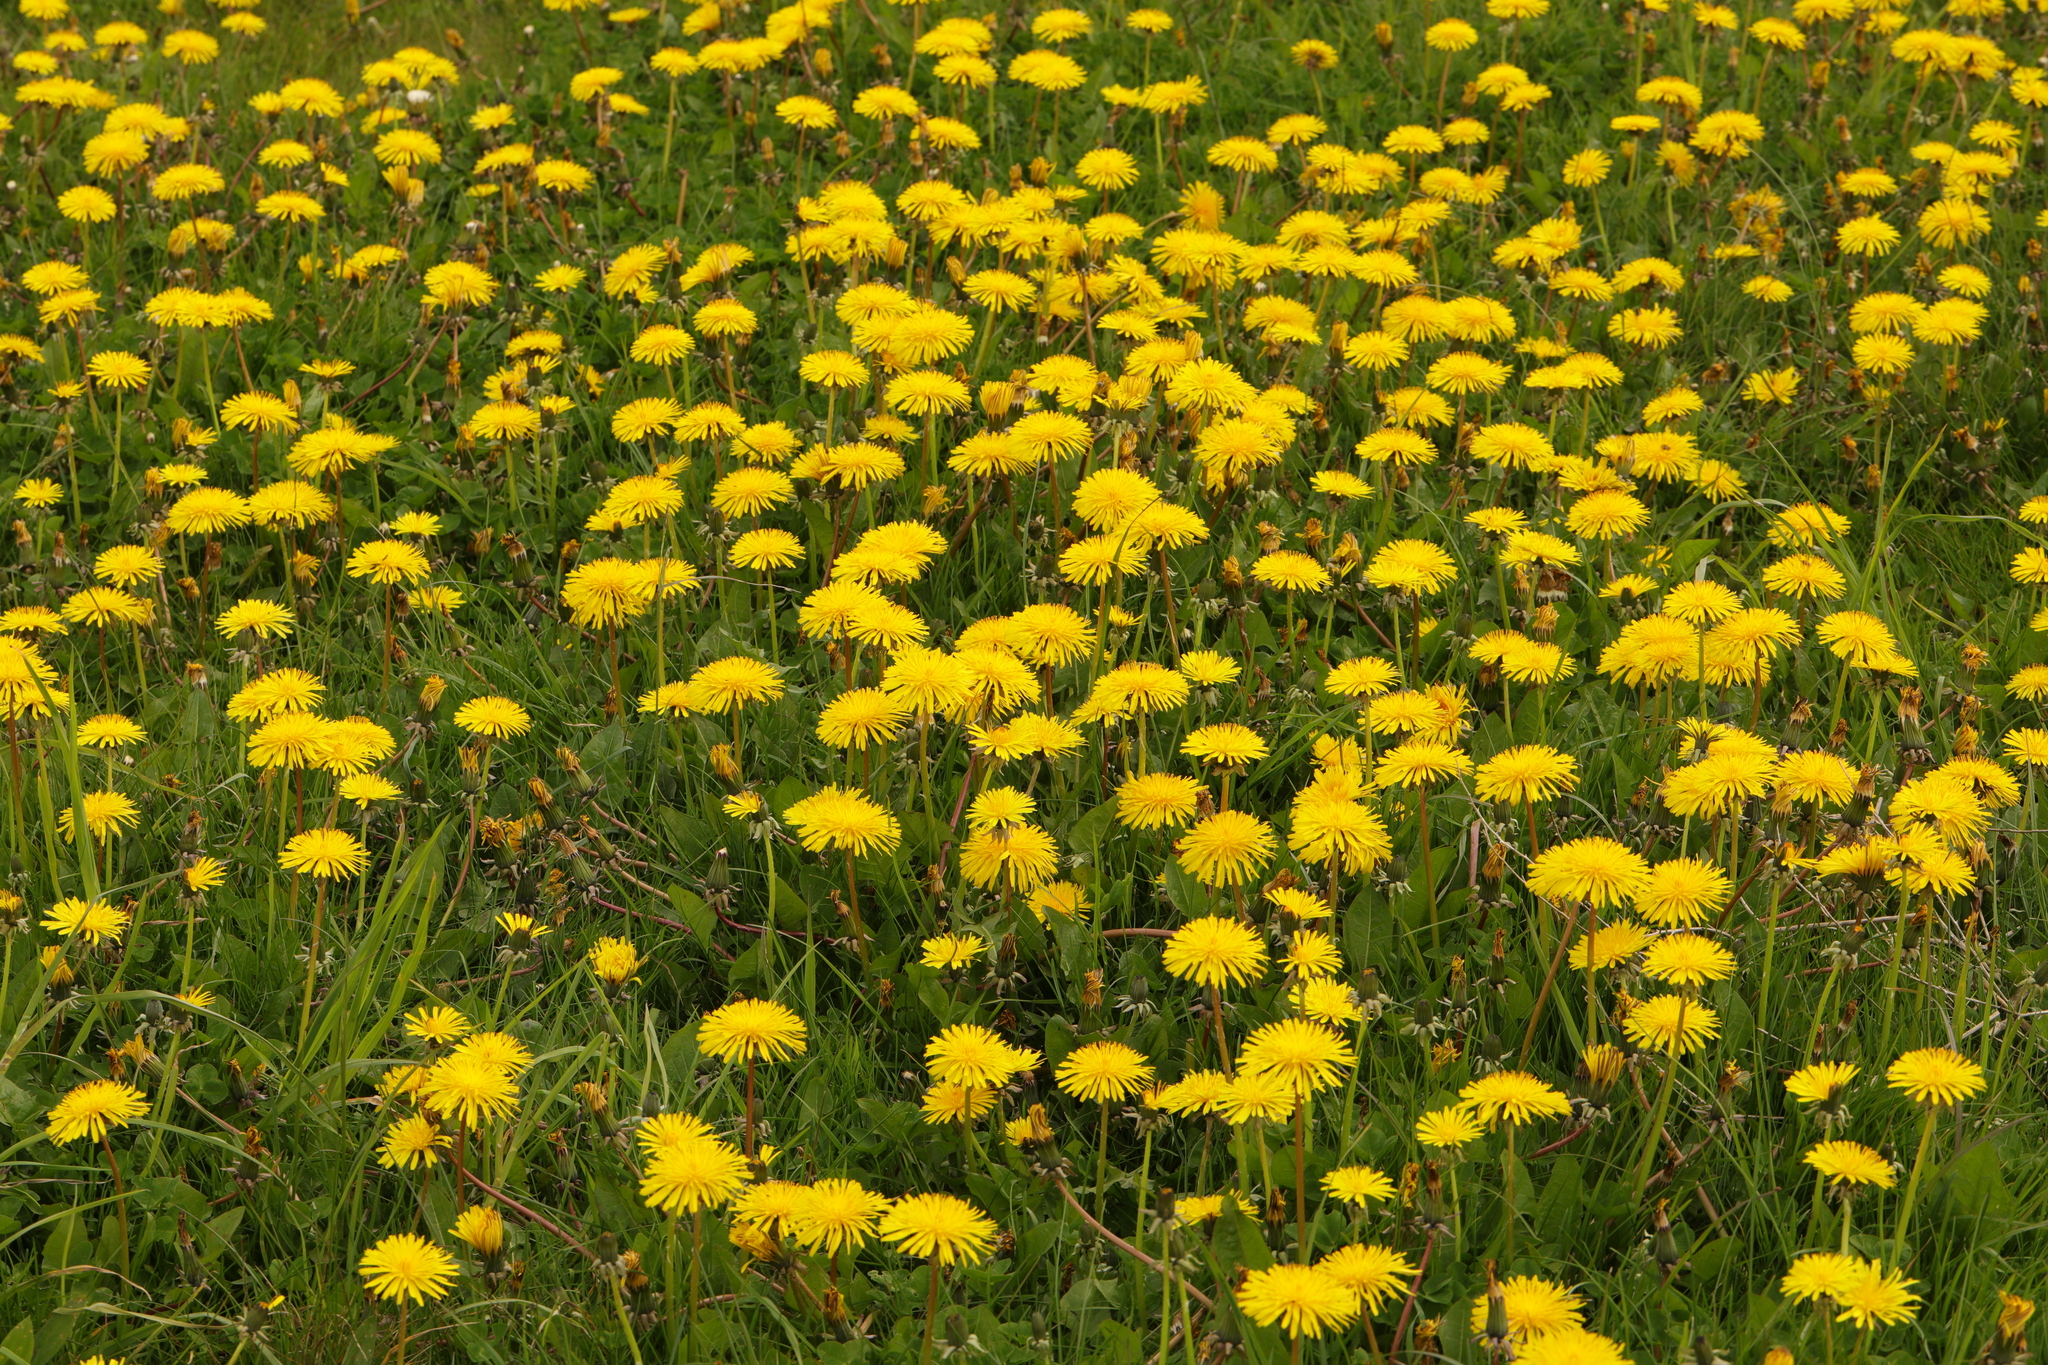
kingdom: Plantae
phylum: Tracheophyta
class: Magnoliopsida
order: Asterales
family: Asteraceae
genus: Taraxacum
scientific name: Taraxacum officinale
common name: Common dandelion
